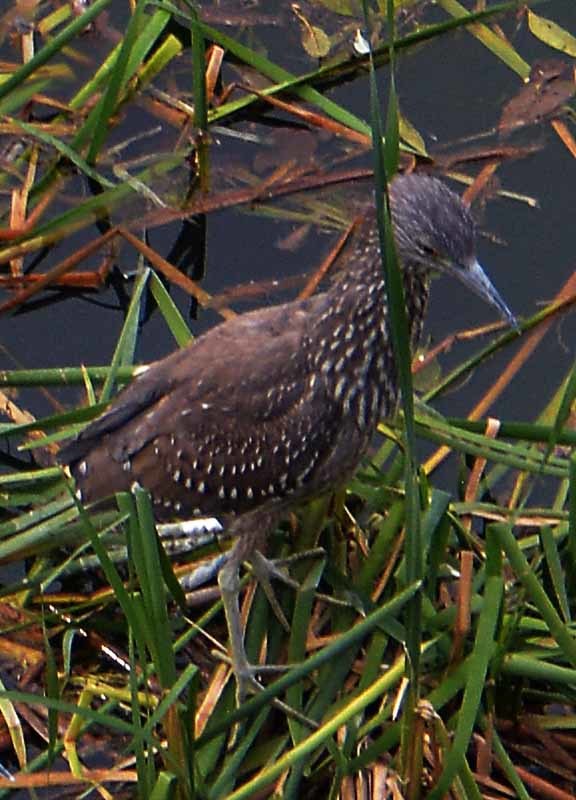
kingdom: Animalia
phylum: Chordata
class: Aves
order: Pelecaniformes
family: Ardeidae
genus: Nycticorax
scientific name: Nycticorax nycticorax
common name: Black-crowned night heron
